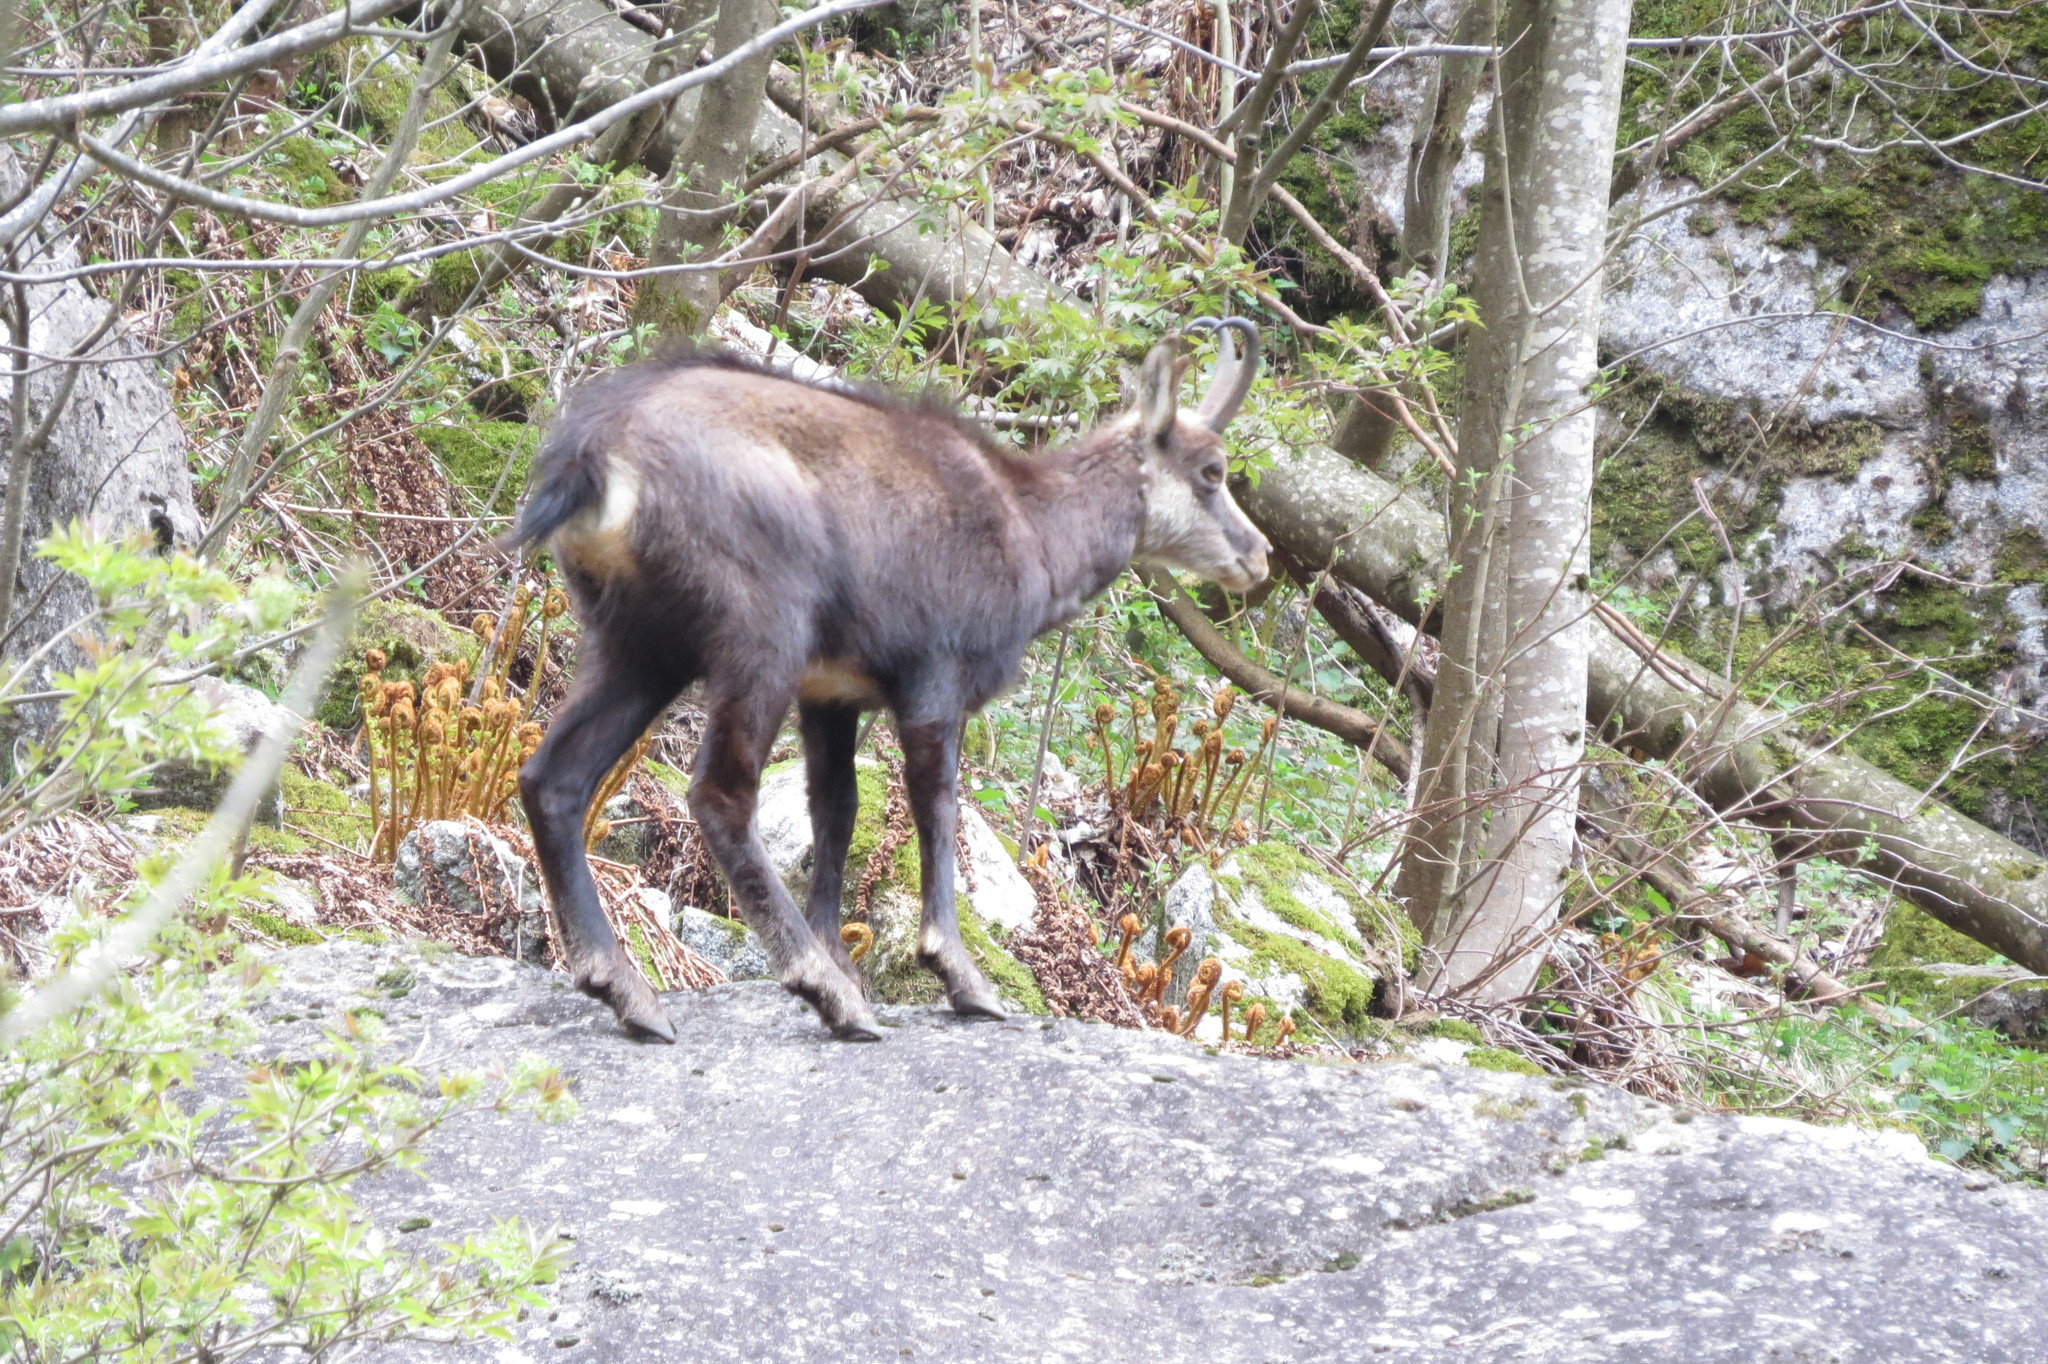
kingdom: Animalia
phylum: Chordata
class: Mammalia
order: Artiodactyla
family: Bovidae
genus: Rupicapra
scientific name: Rupicapra rupicapra
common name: Chamois
